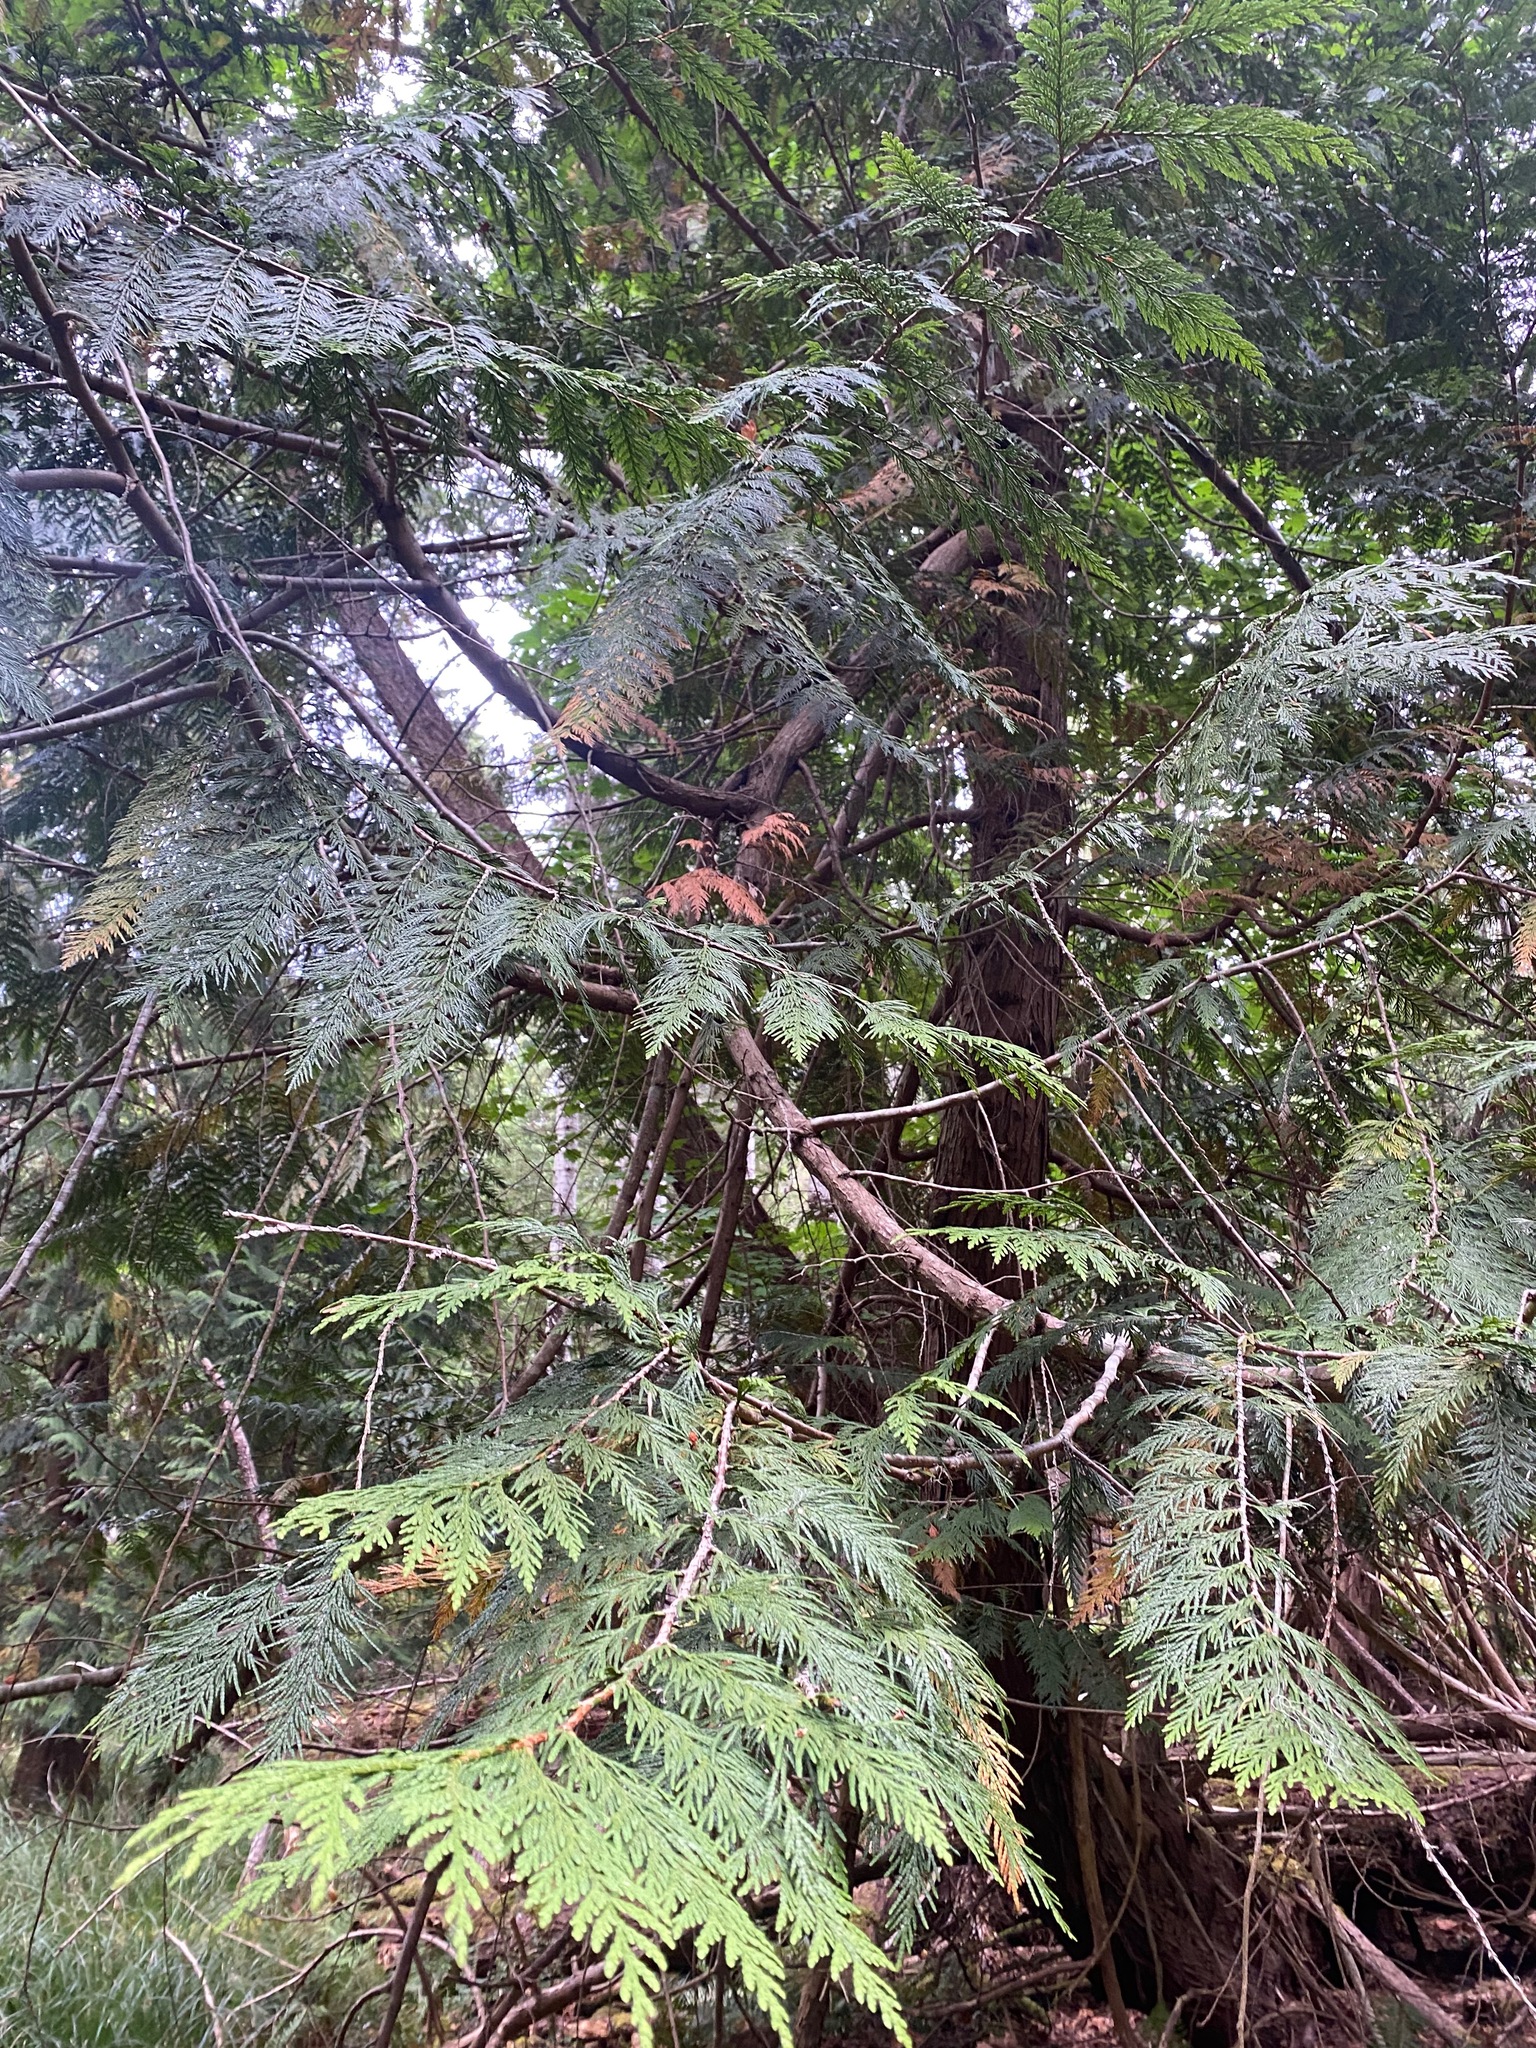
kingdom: Plantae
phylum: Tracheophyta
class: Pinopsida
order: Pinales
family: Cupressaceae
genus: Thuja
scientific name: Thuja plicata
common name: Western red-cedar
